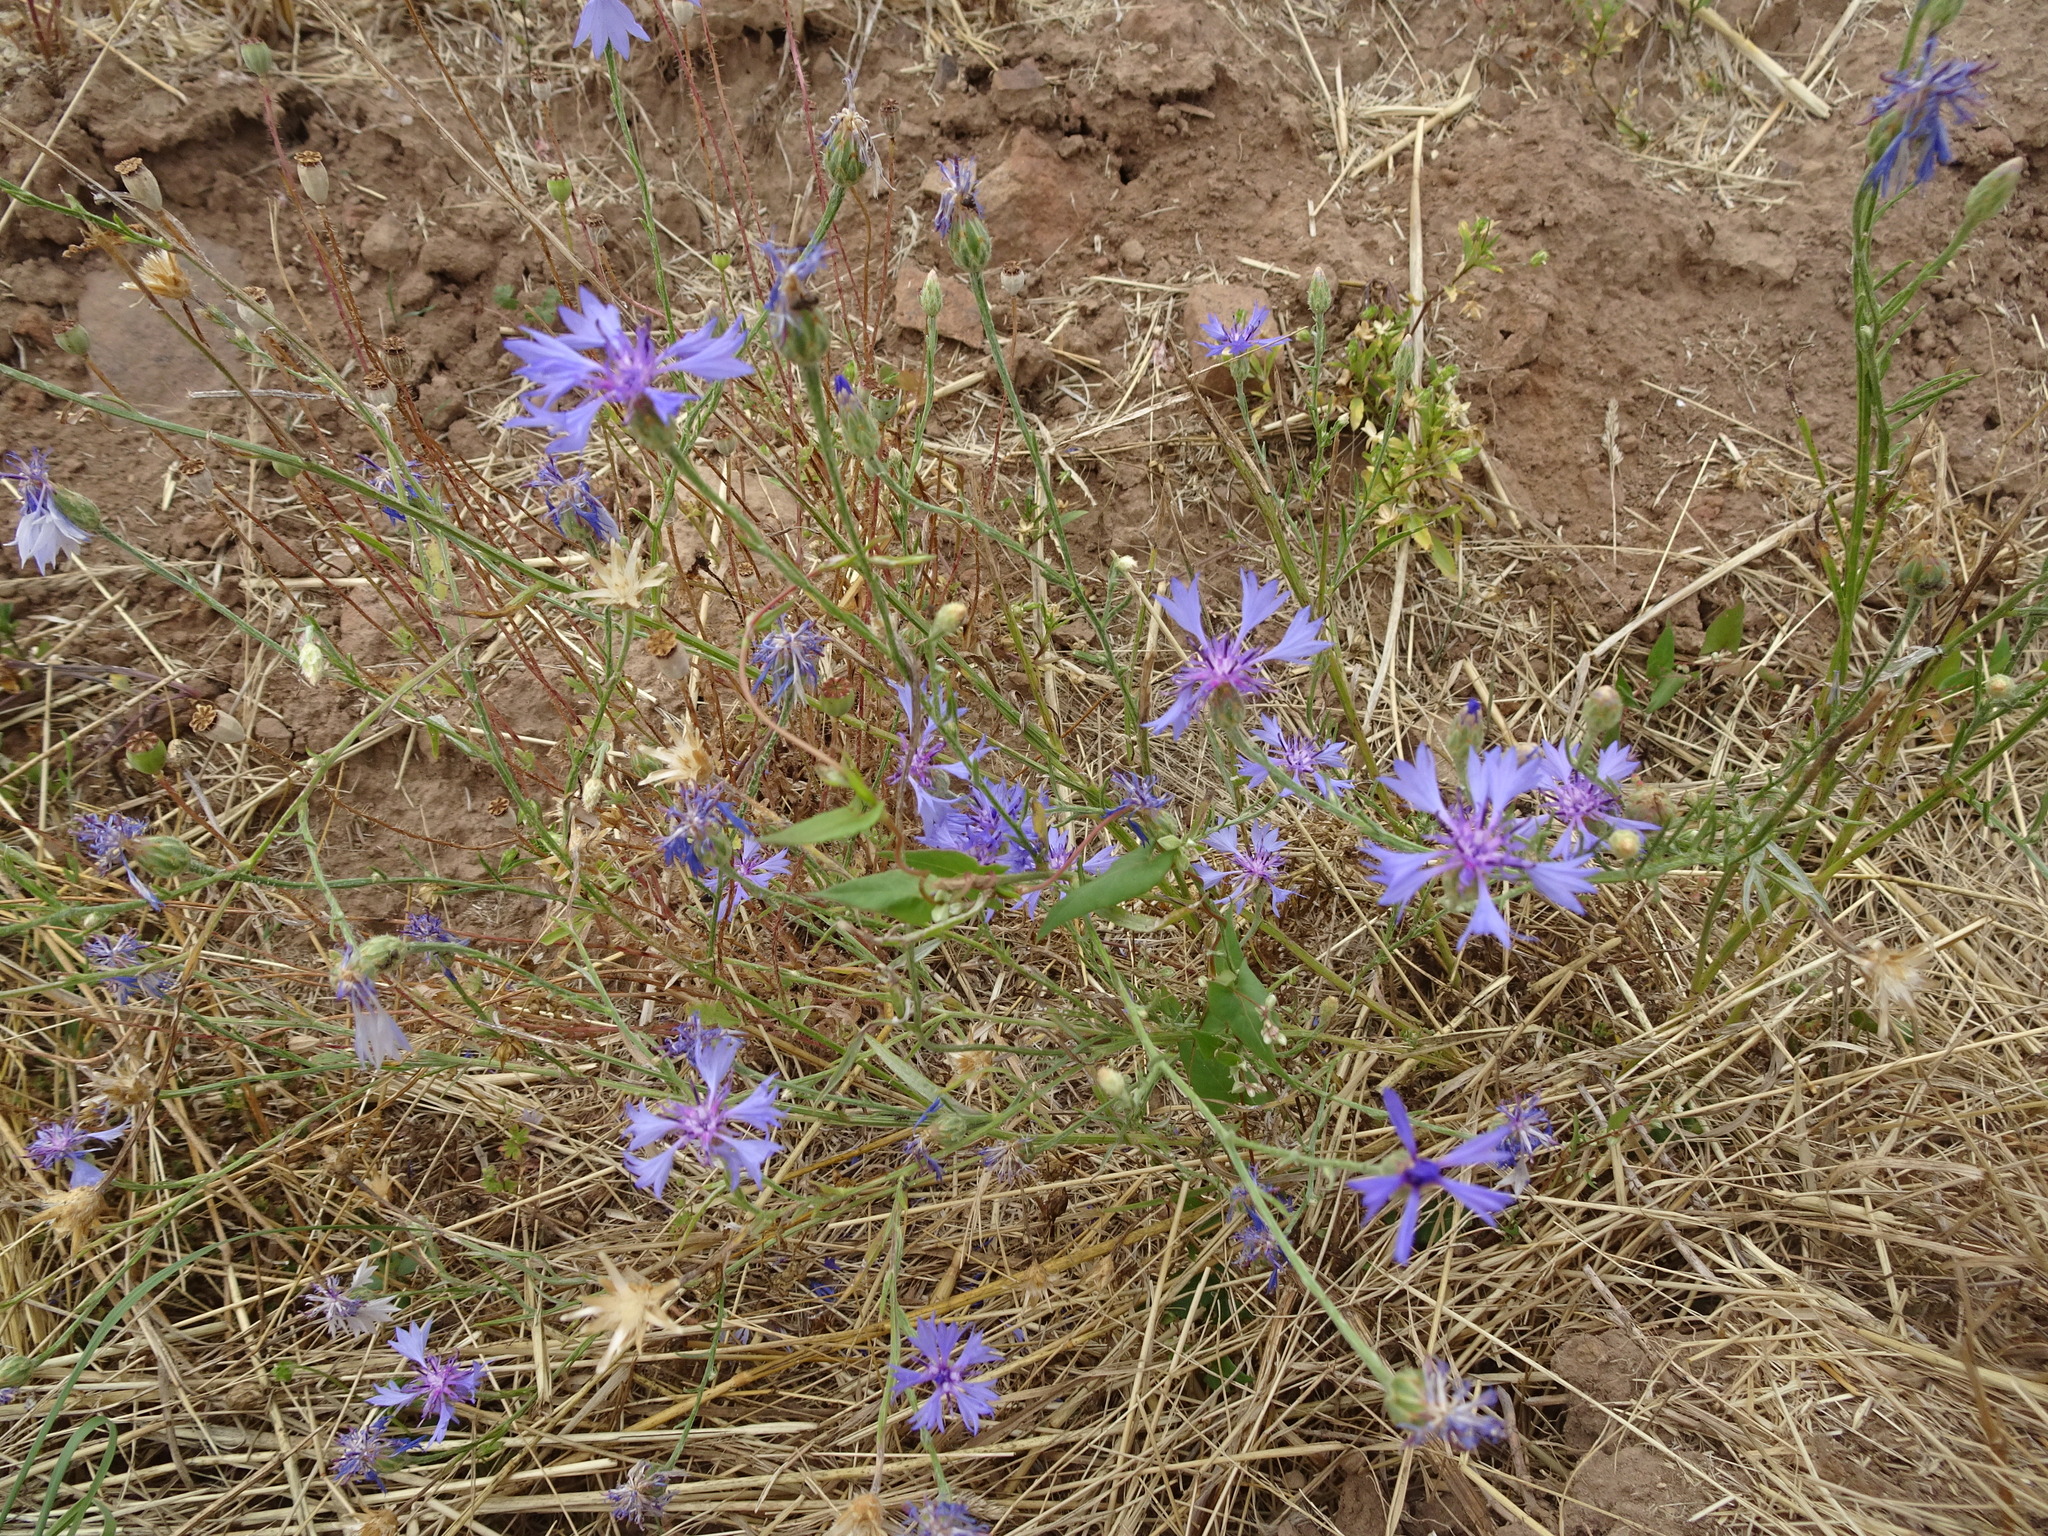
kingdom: Plantae
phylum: Tracheophyta
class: Magnoliopsida
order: Asterales
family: Asteraceae
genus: Centaurea
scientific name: Centaurea cyanus
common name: Cornflower
